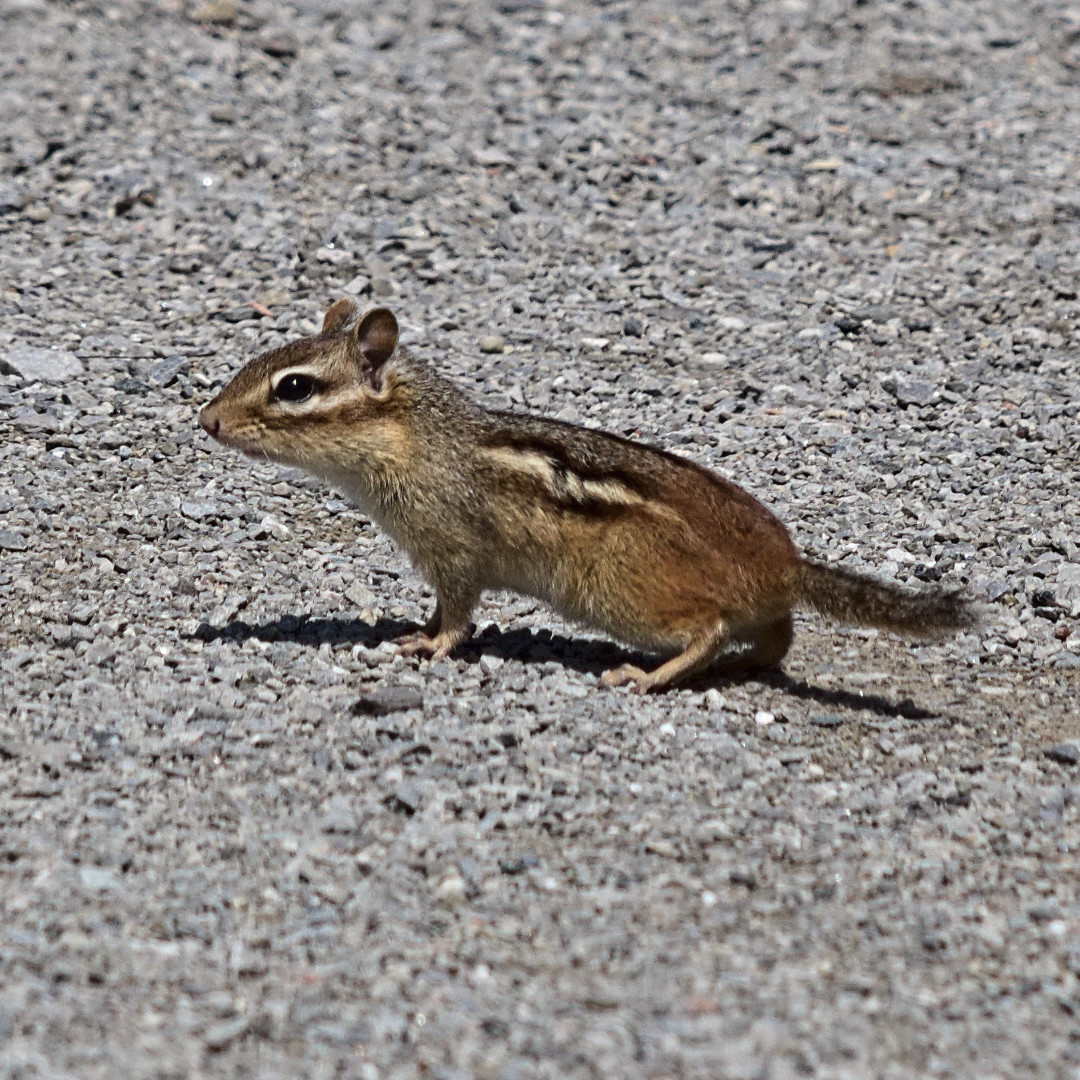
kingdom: Animalia
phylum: Chordata
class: Mammalia
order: Rodentia
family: Sciuridae
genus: Tamias
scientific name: Tamias striatus
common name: Eastern chipmunk
